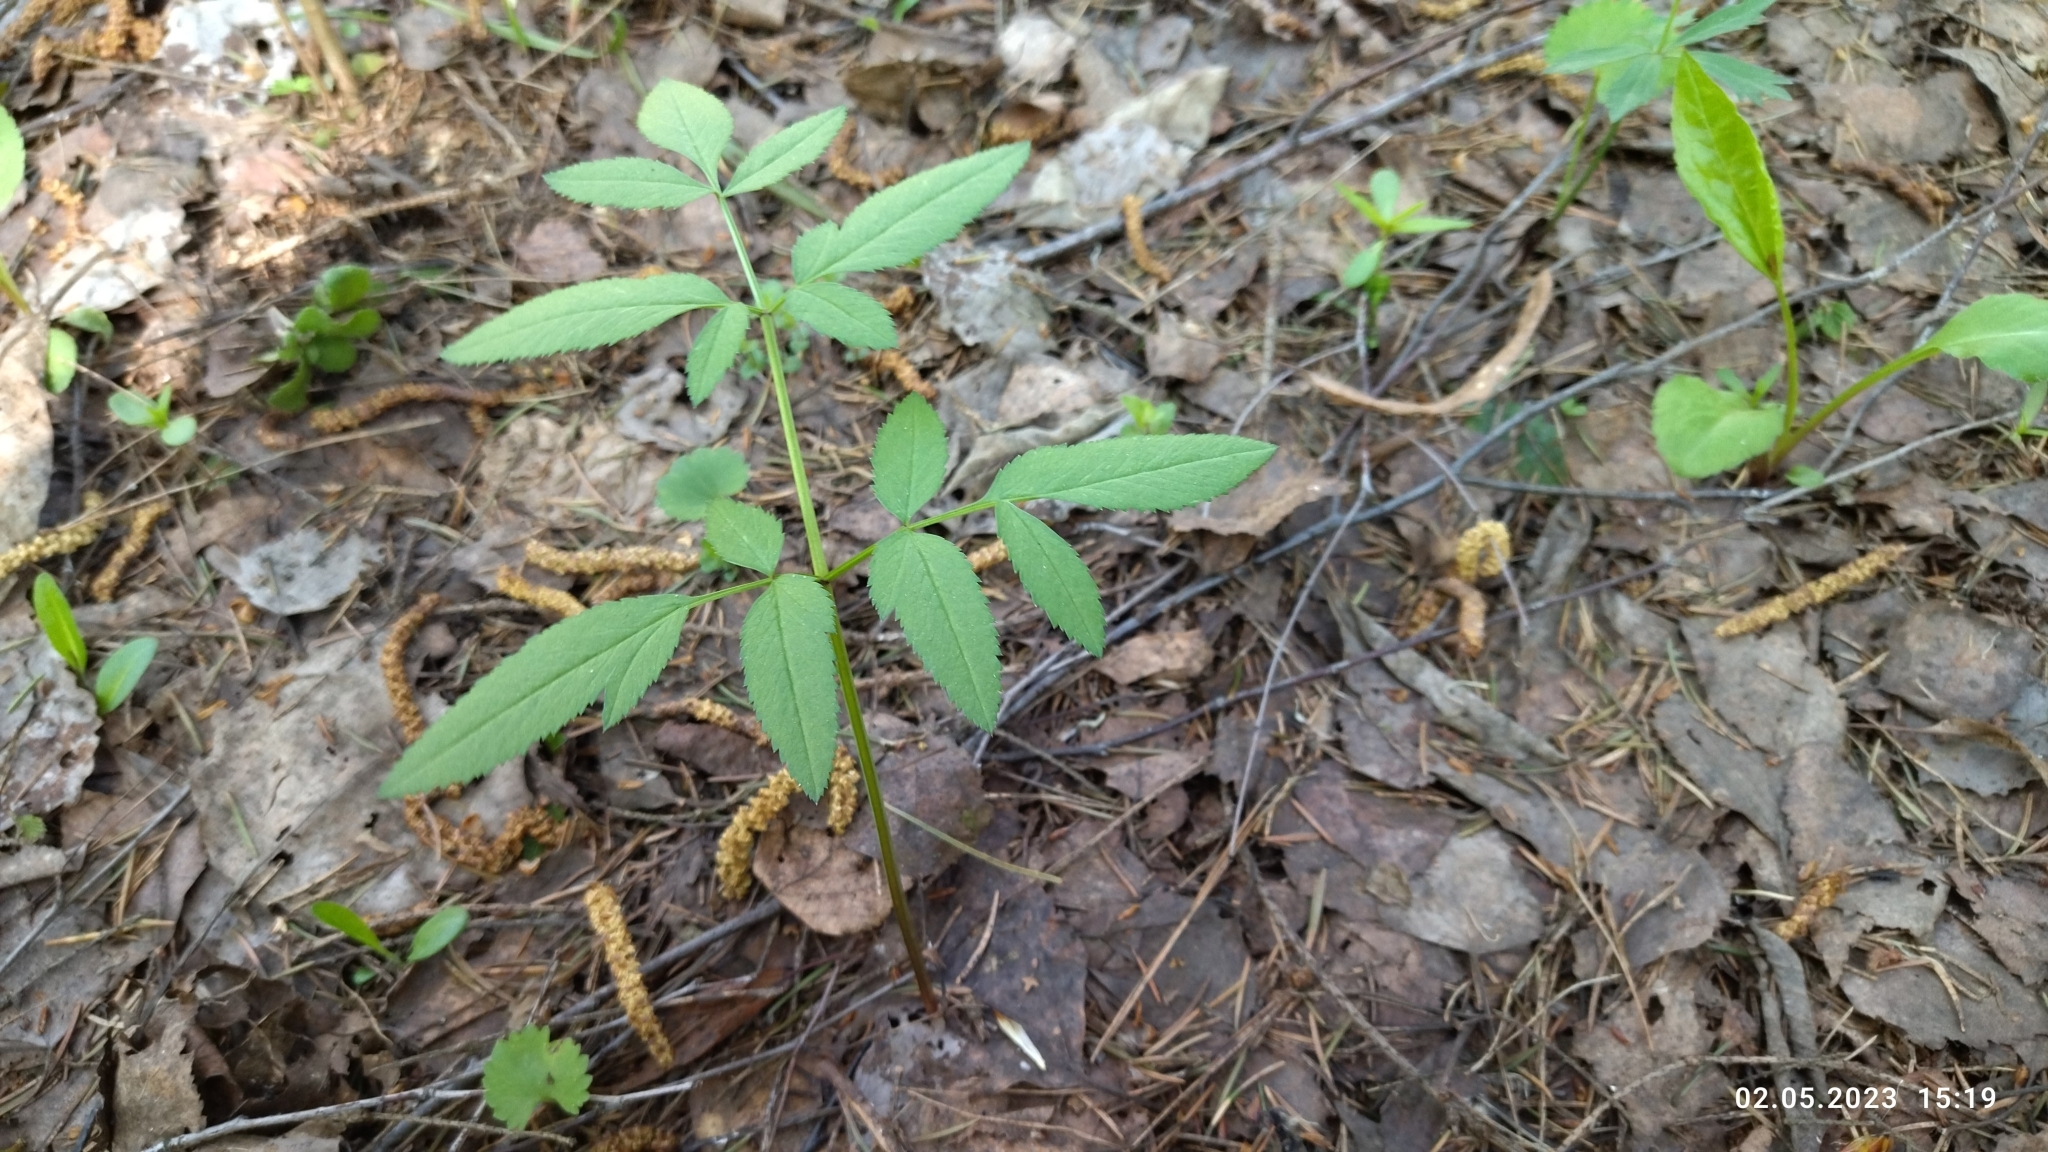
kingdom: Plantae
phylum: Tracheophyta
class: Magnoliopsida
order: Apiales
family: Apiaceae
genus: Angelica
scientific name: Angelica sylvestris
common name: Wild angelica
